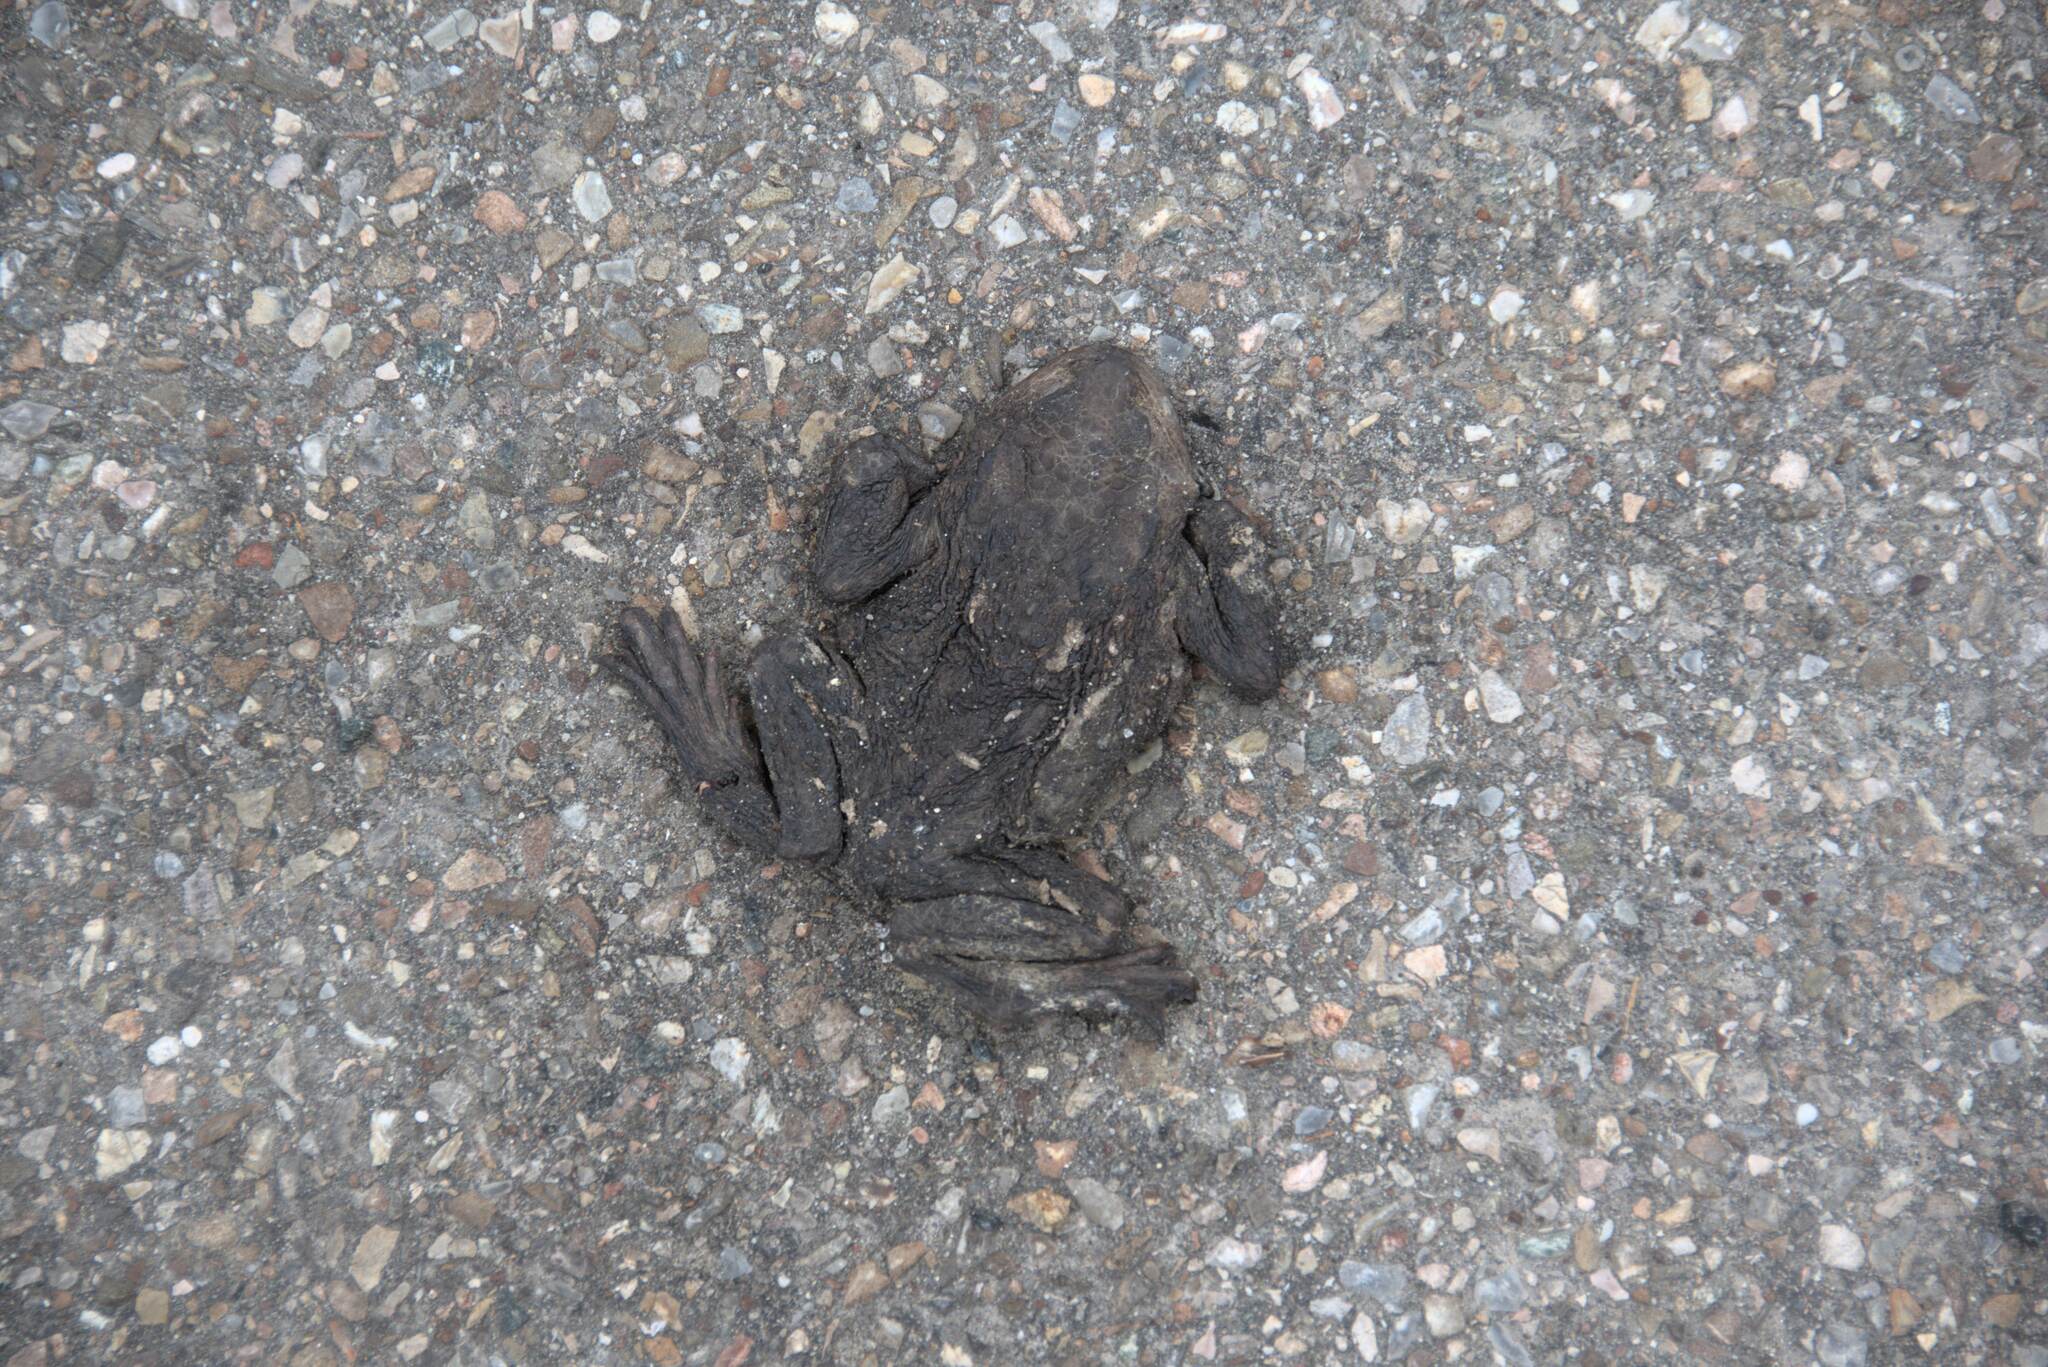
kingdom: Animalia
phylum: Chordata
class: Amphibia
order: Anura
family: Bufonidae
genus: Bufo
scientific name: Bufo bufo
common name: Common toad
